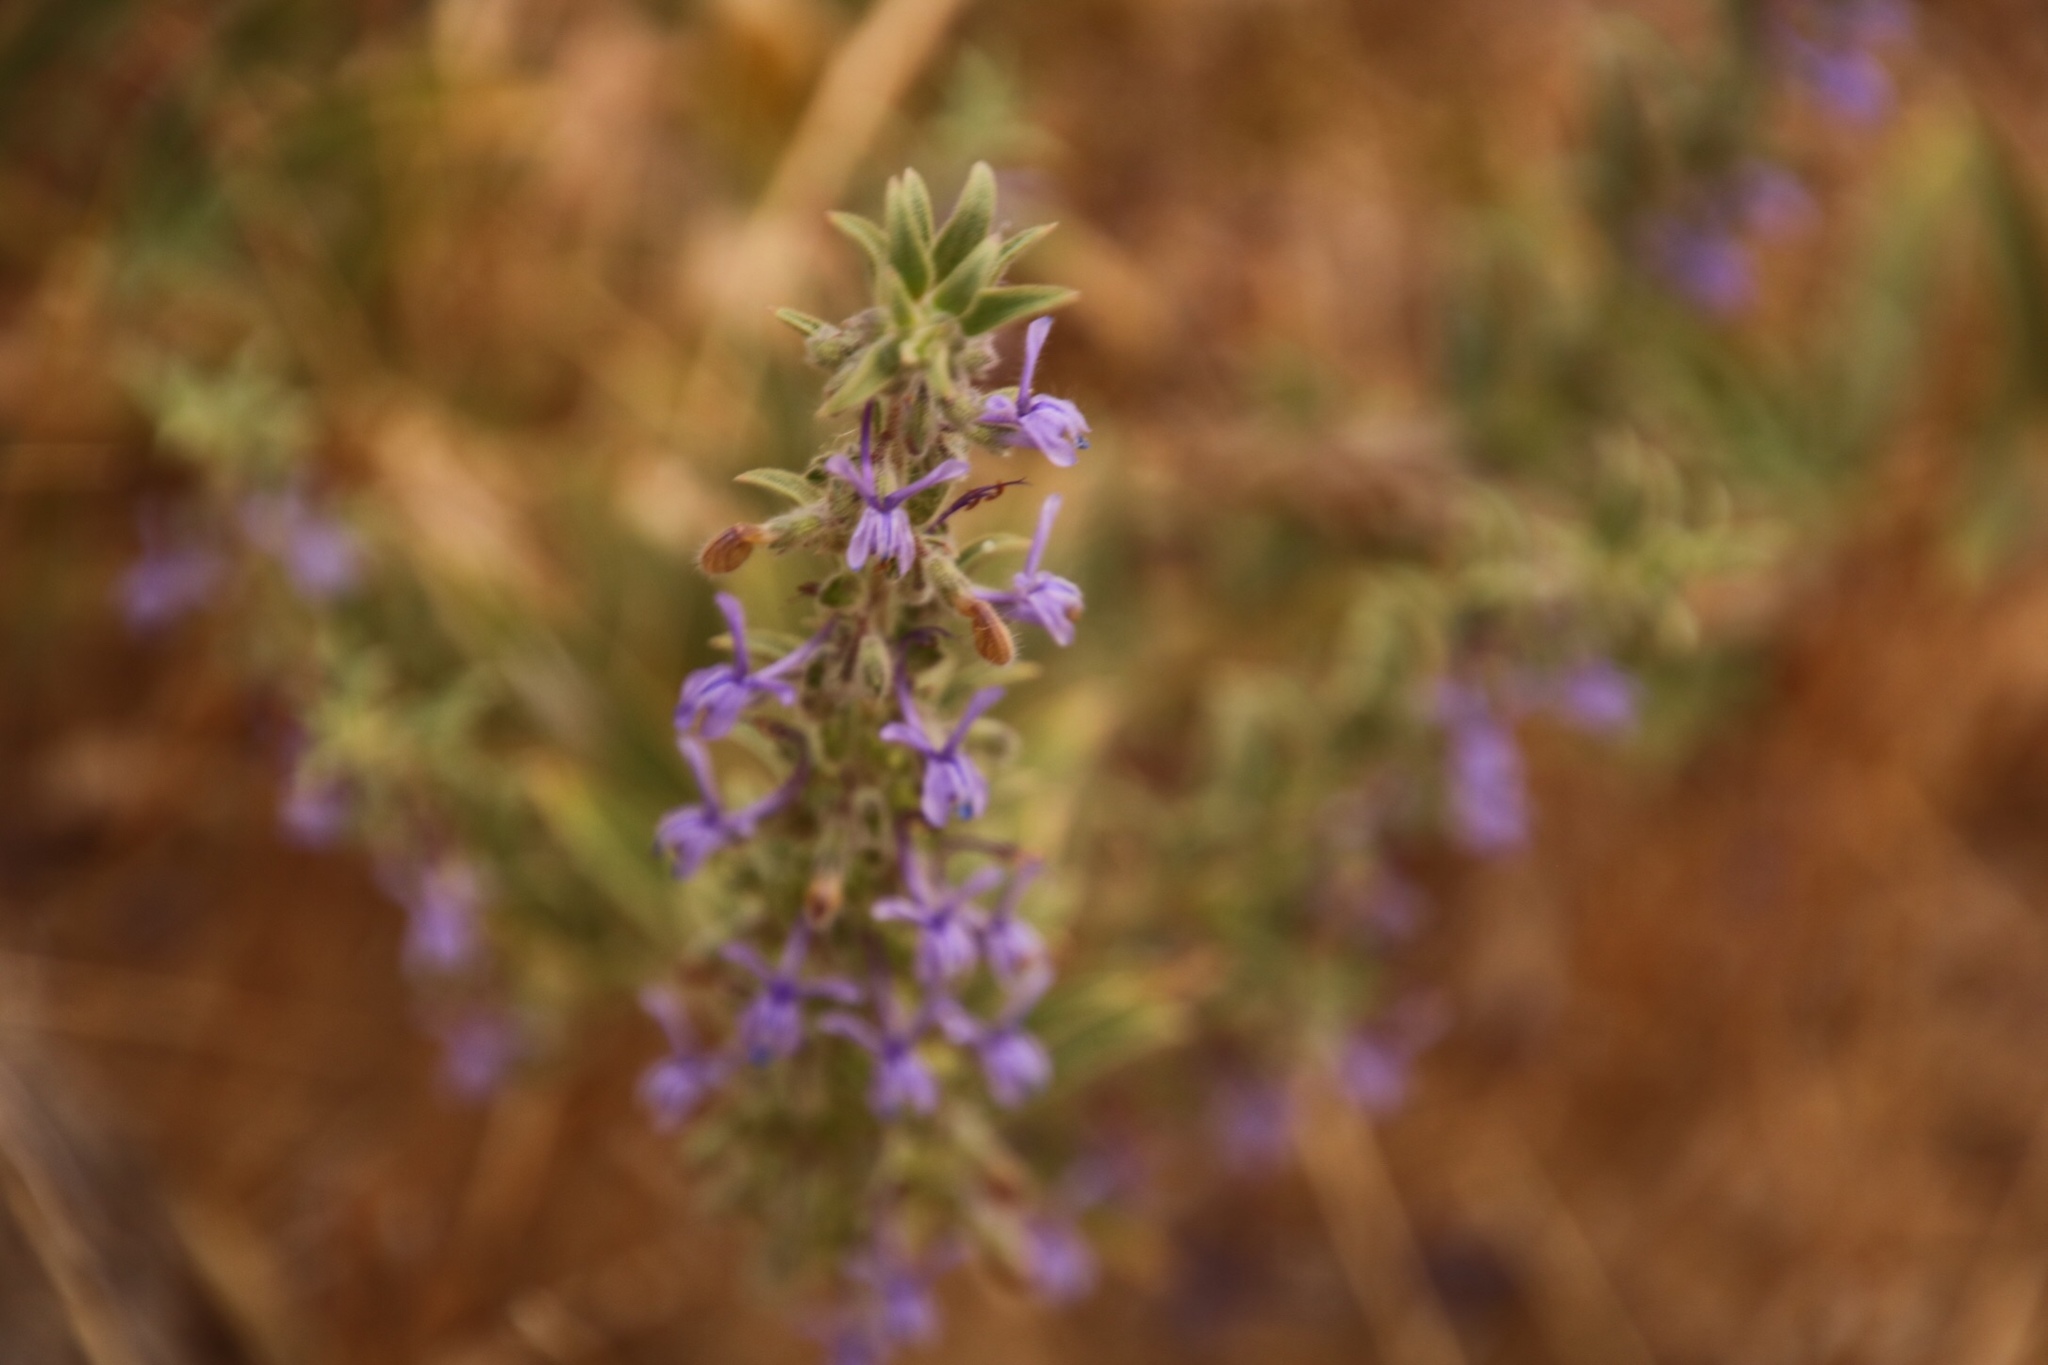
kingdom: Plantae
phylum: Tracheophyta
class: Magnoliopsida
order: Lamiales
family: Lamiaceae
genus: Trichostema
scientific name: Trichostema lanceolatum
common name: Vinegar-weed
